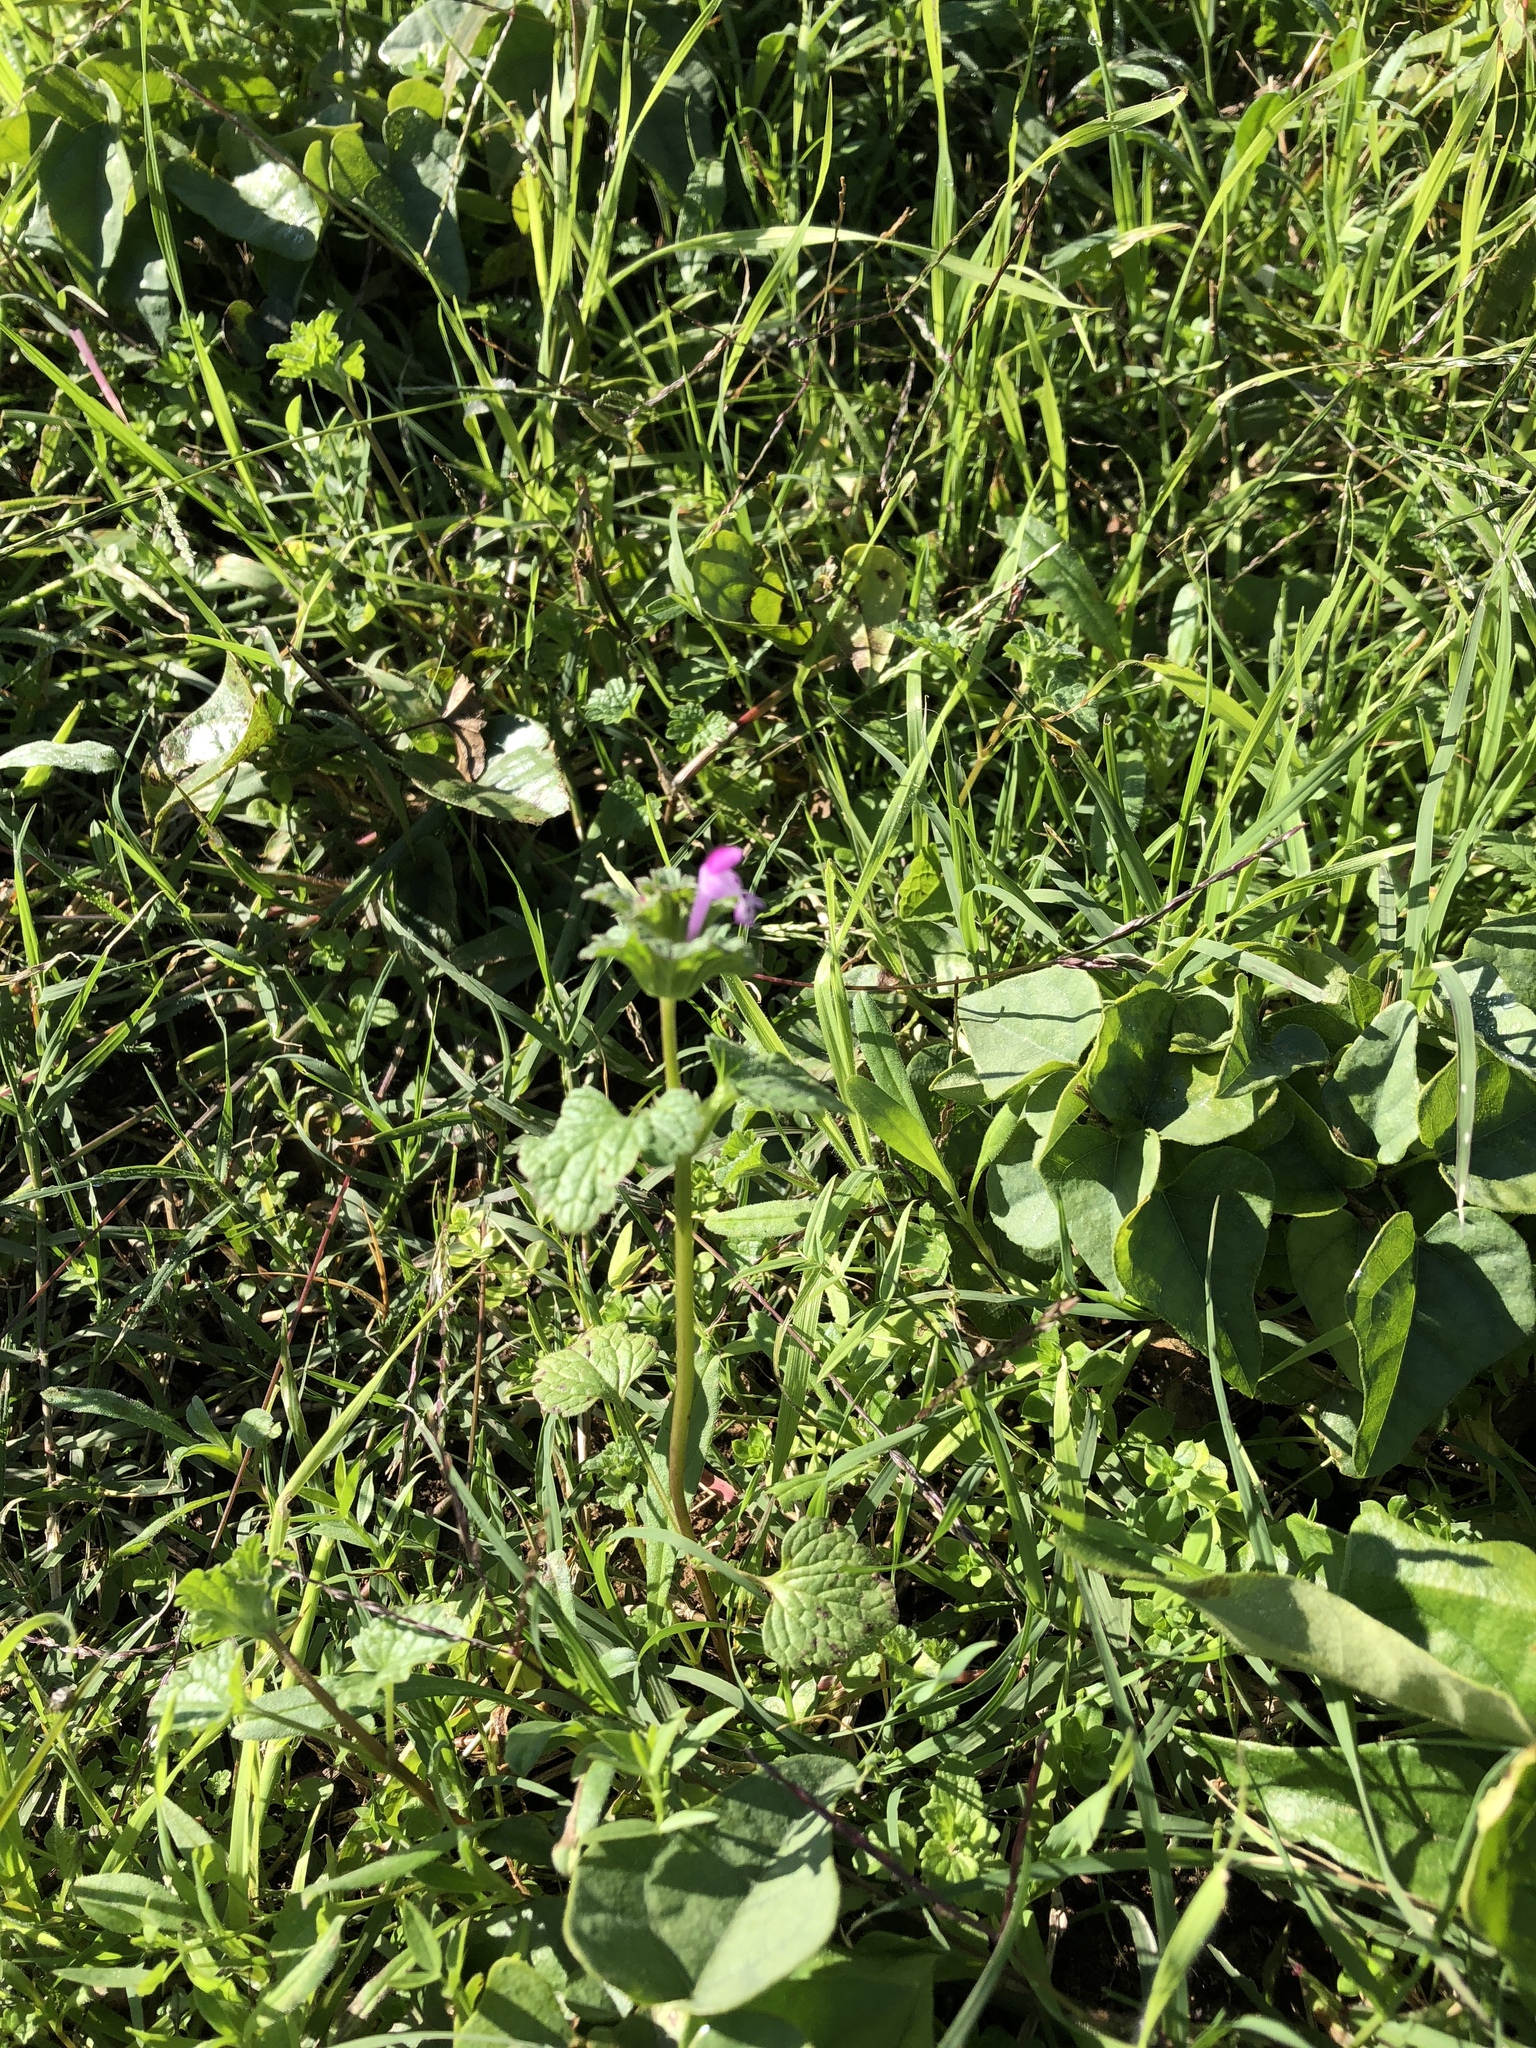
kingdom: Plantae
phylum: Tracheophyta
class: Magnoliopsida
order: Lamiales
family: Lamiaceae
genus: Lamium
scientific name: Lamium amplexicaule
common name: Henbit dead-nettle
